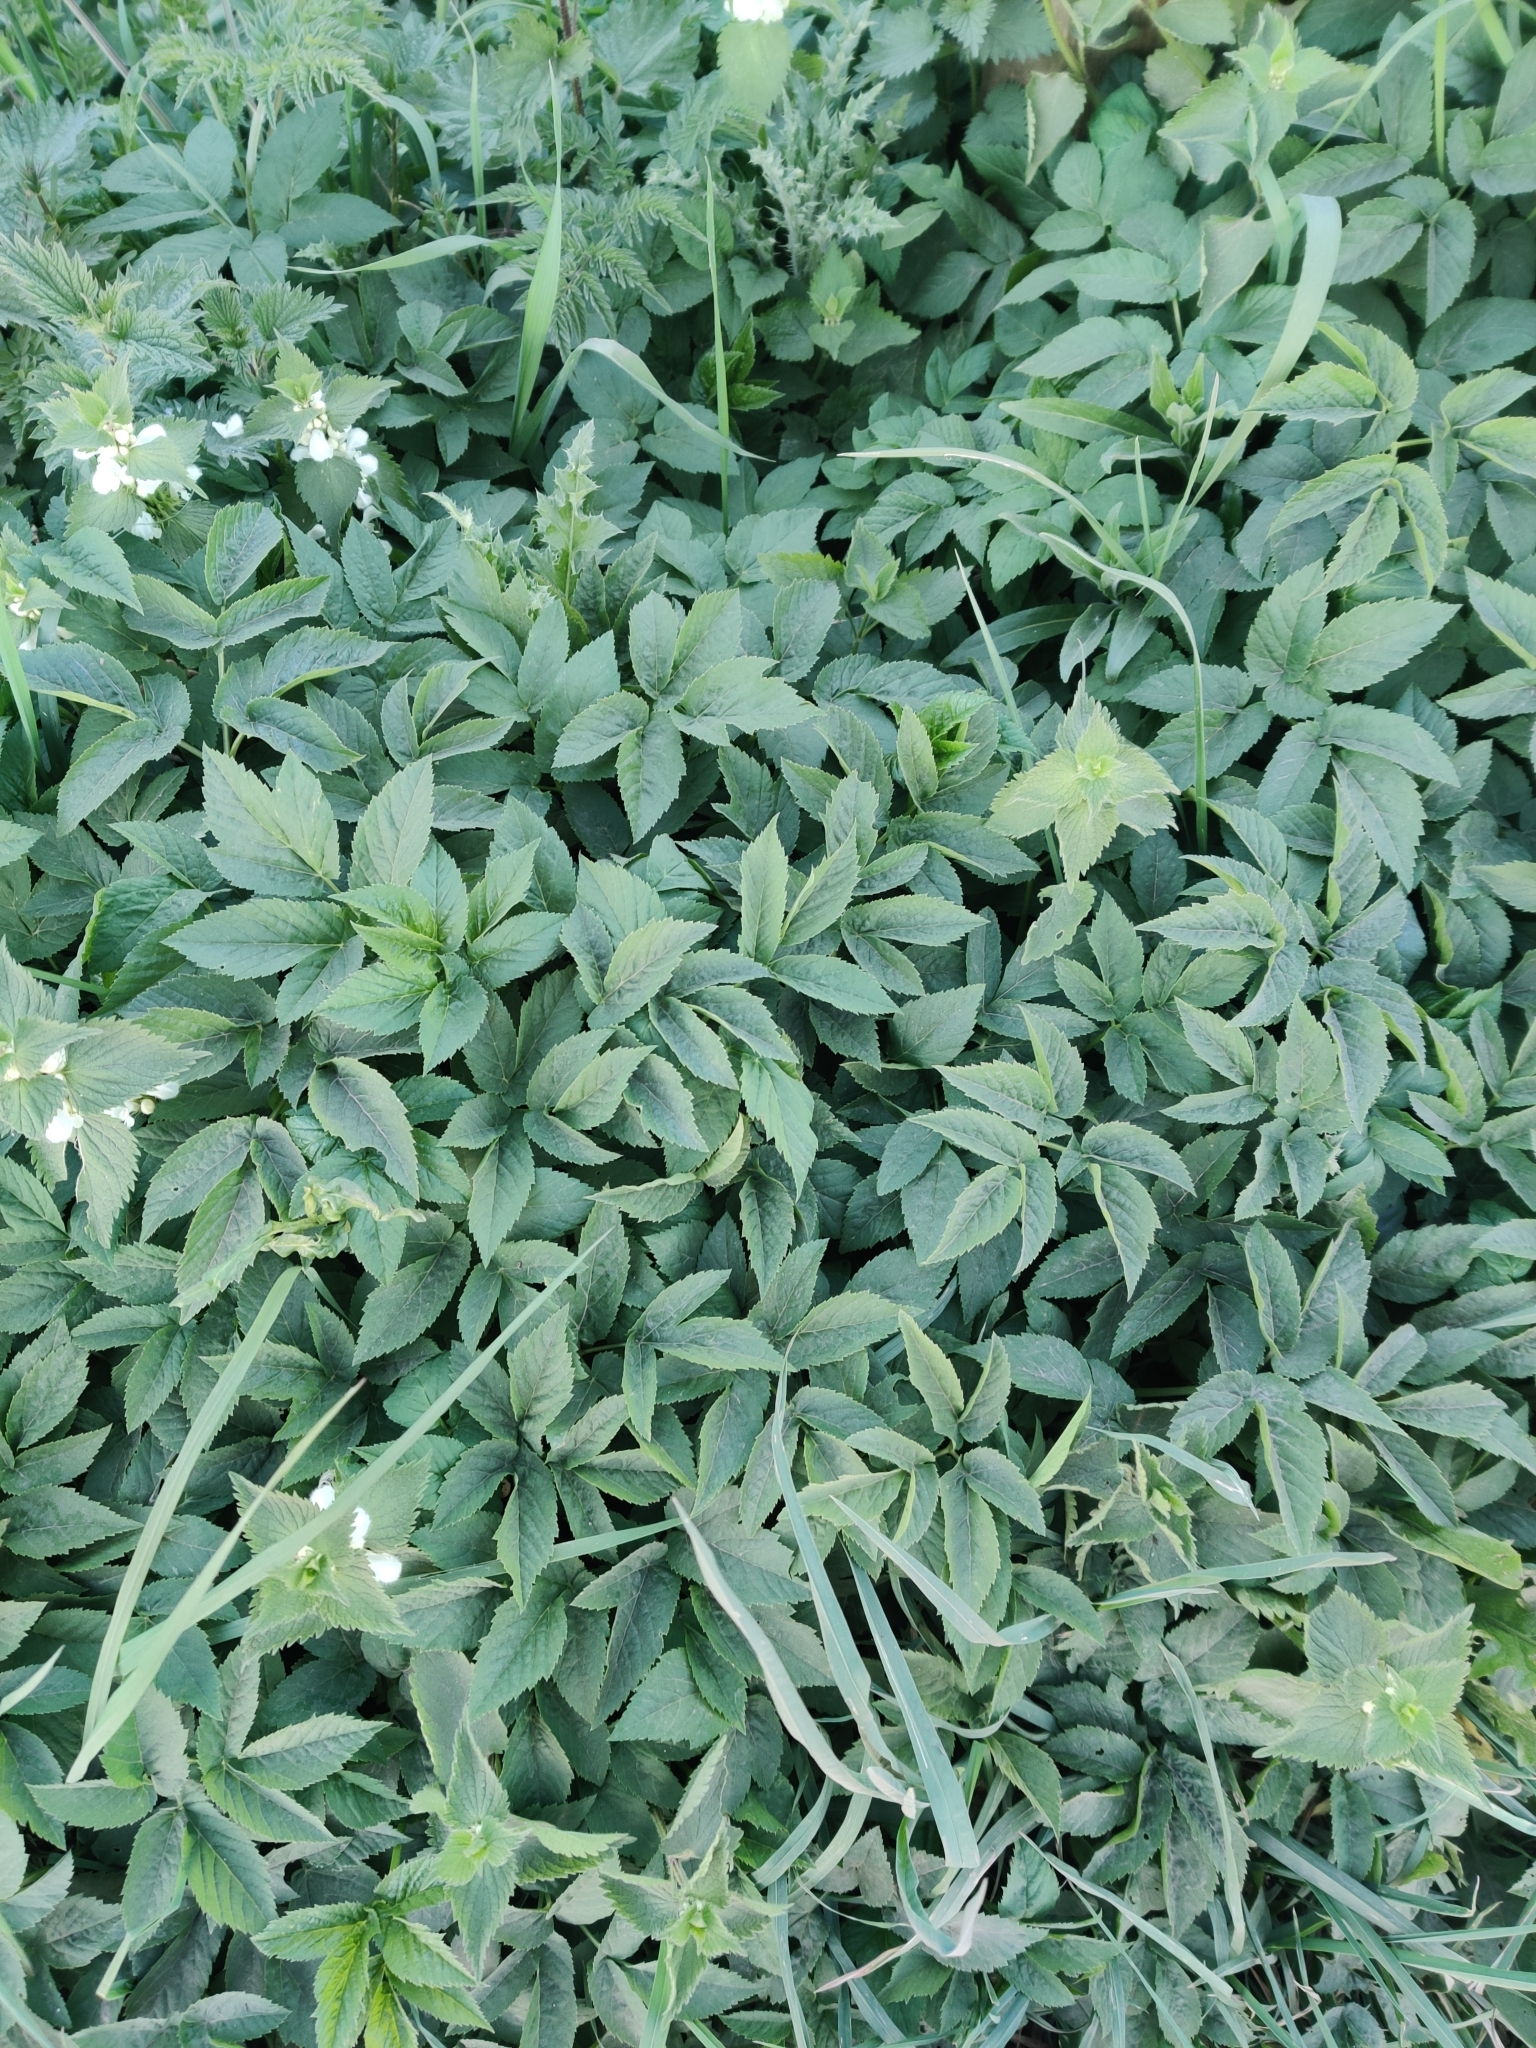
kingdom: Plantae
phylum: Tracheophyta
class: Magnoliopsida
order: Apiales
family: Apiaceae
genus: Aegopodium
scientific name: Aegopodium podagraria
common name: Ground-elder
